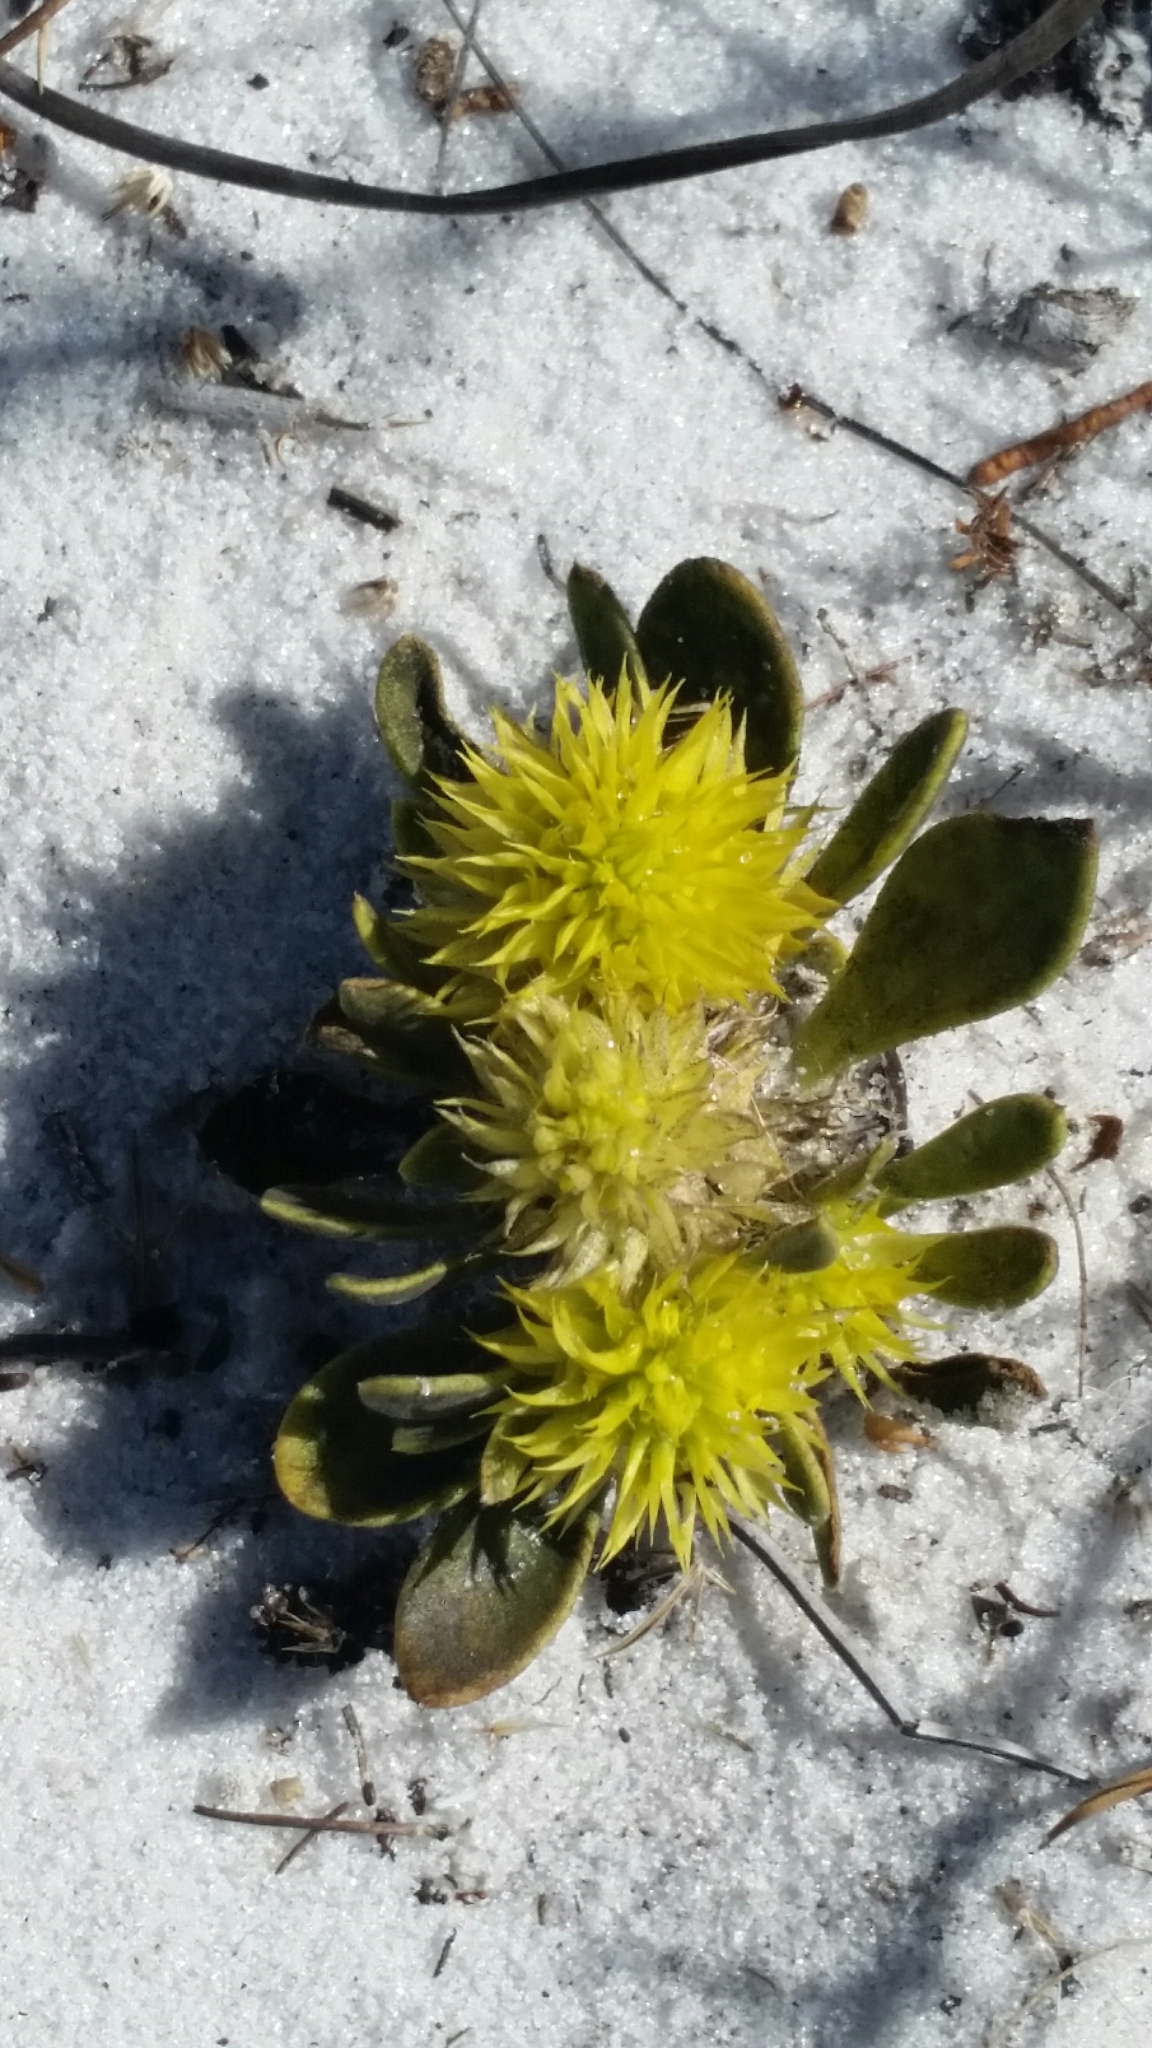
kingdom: Plantae
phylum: Tracheophyta
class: Magnoliopsida
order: Fabales
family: Polygalaceae
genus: Polygala
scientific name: Polygala nana
